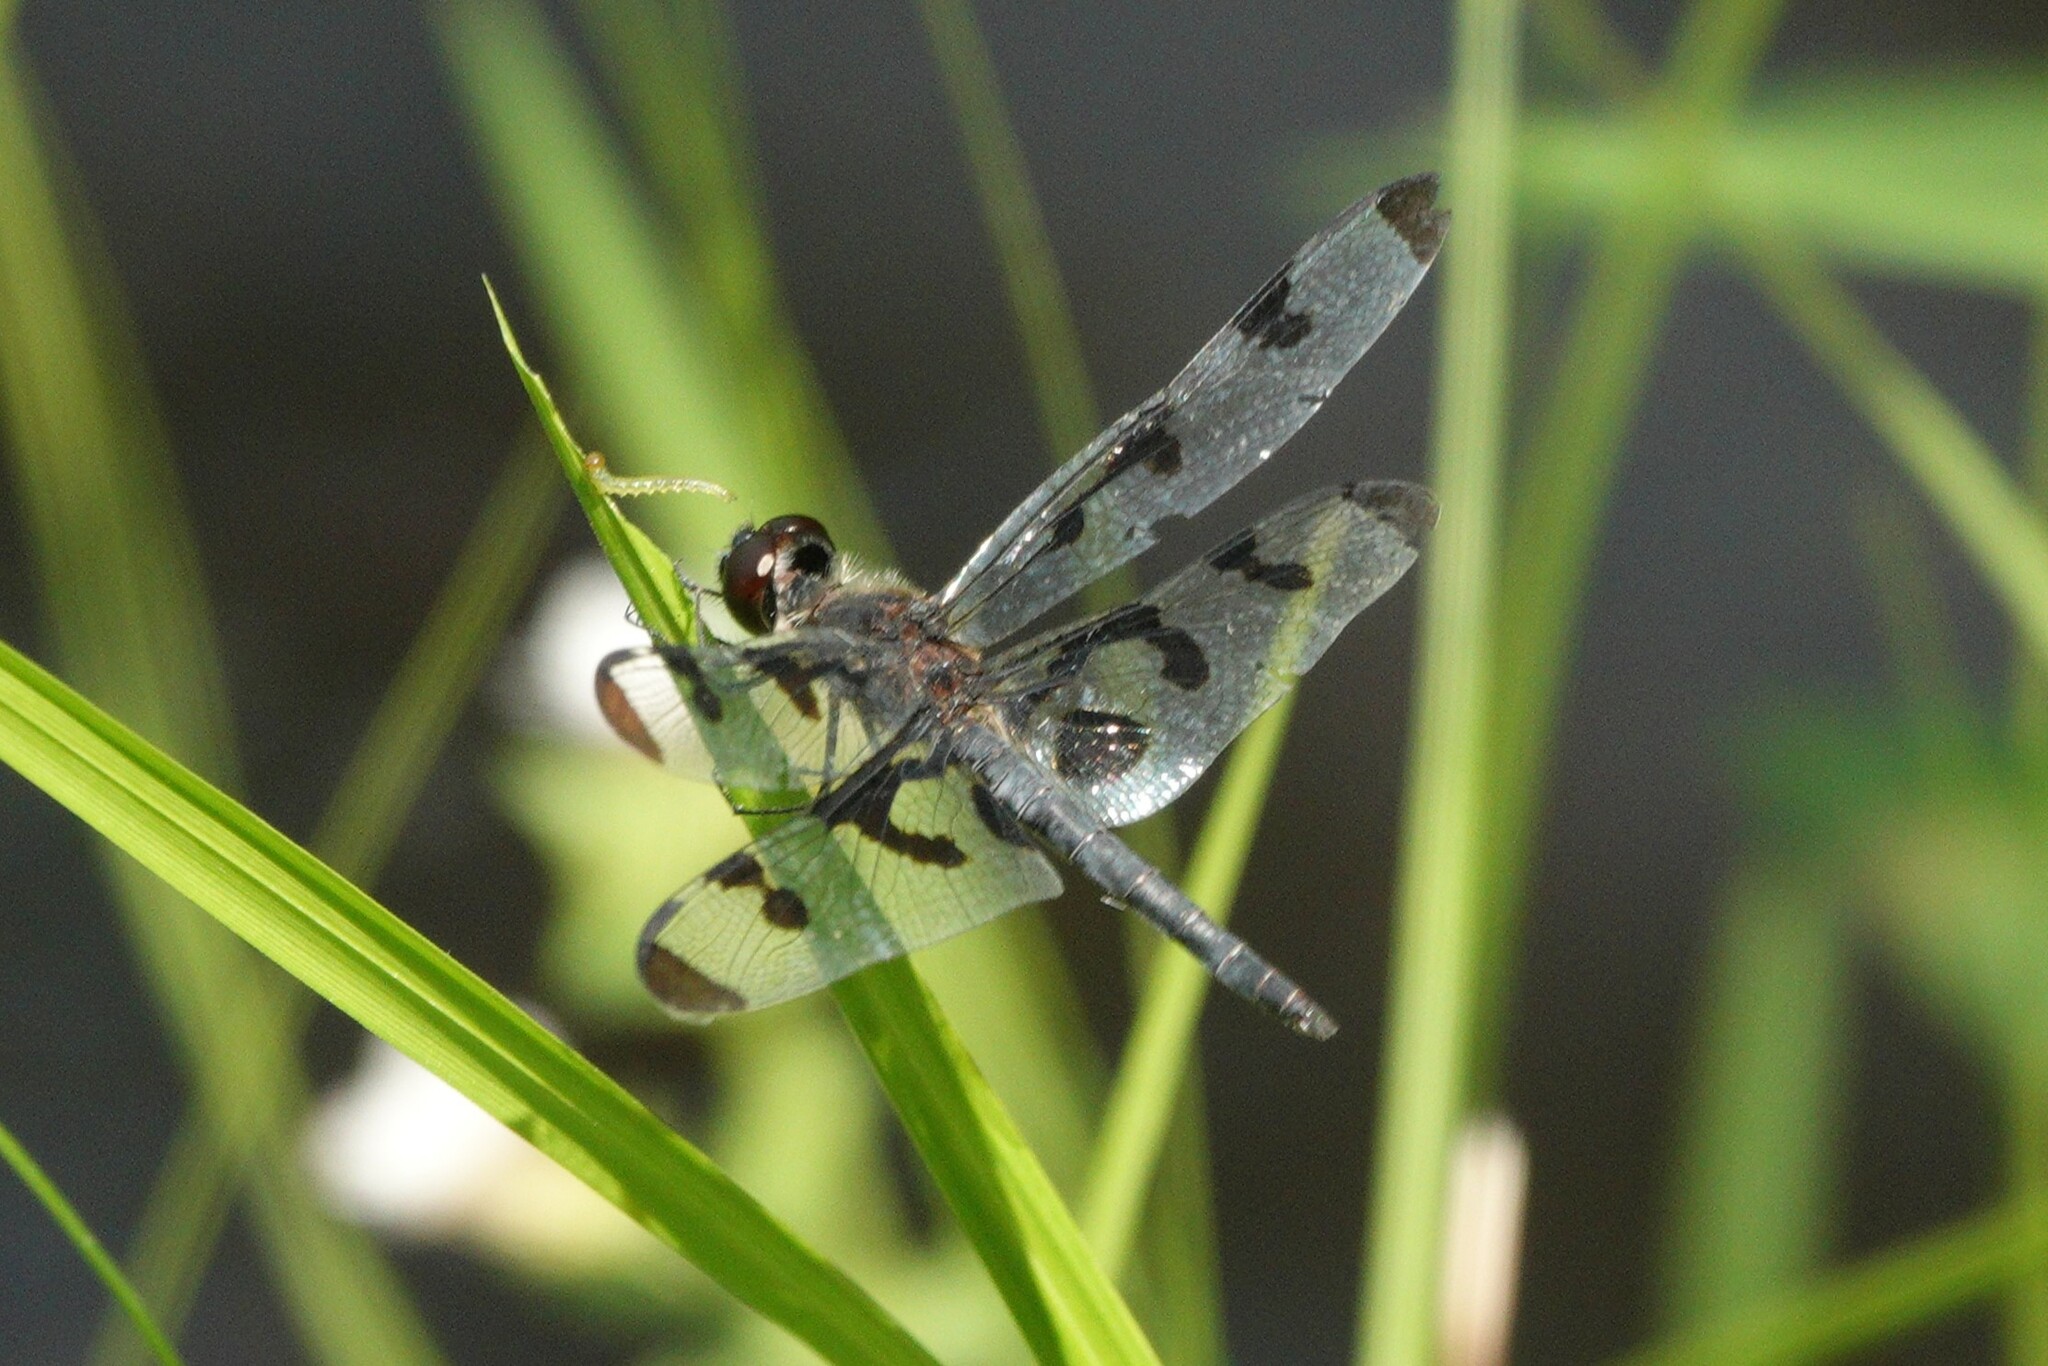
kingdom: Animalia
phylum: Arthropoda
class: Insecta
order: Odonata
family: Libellulidae
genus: Celithemis
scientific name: Celithemis fasciata
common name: Banded pennant
